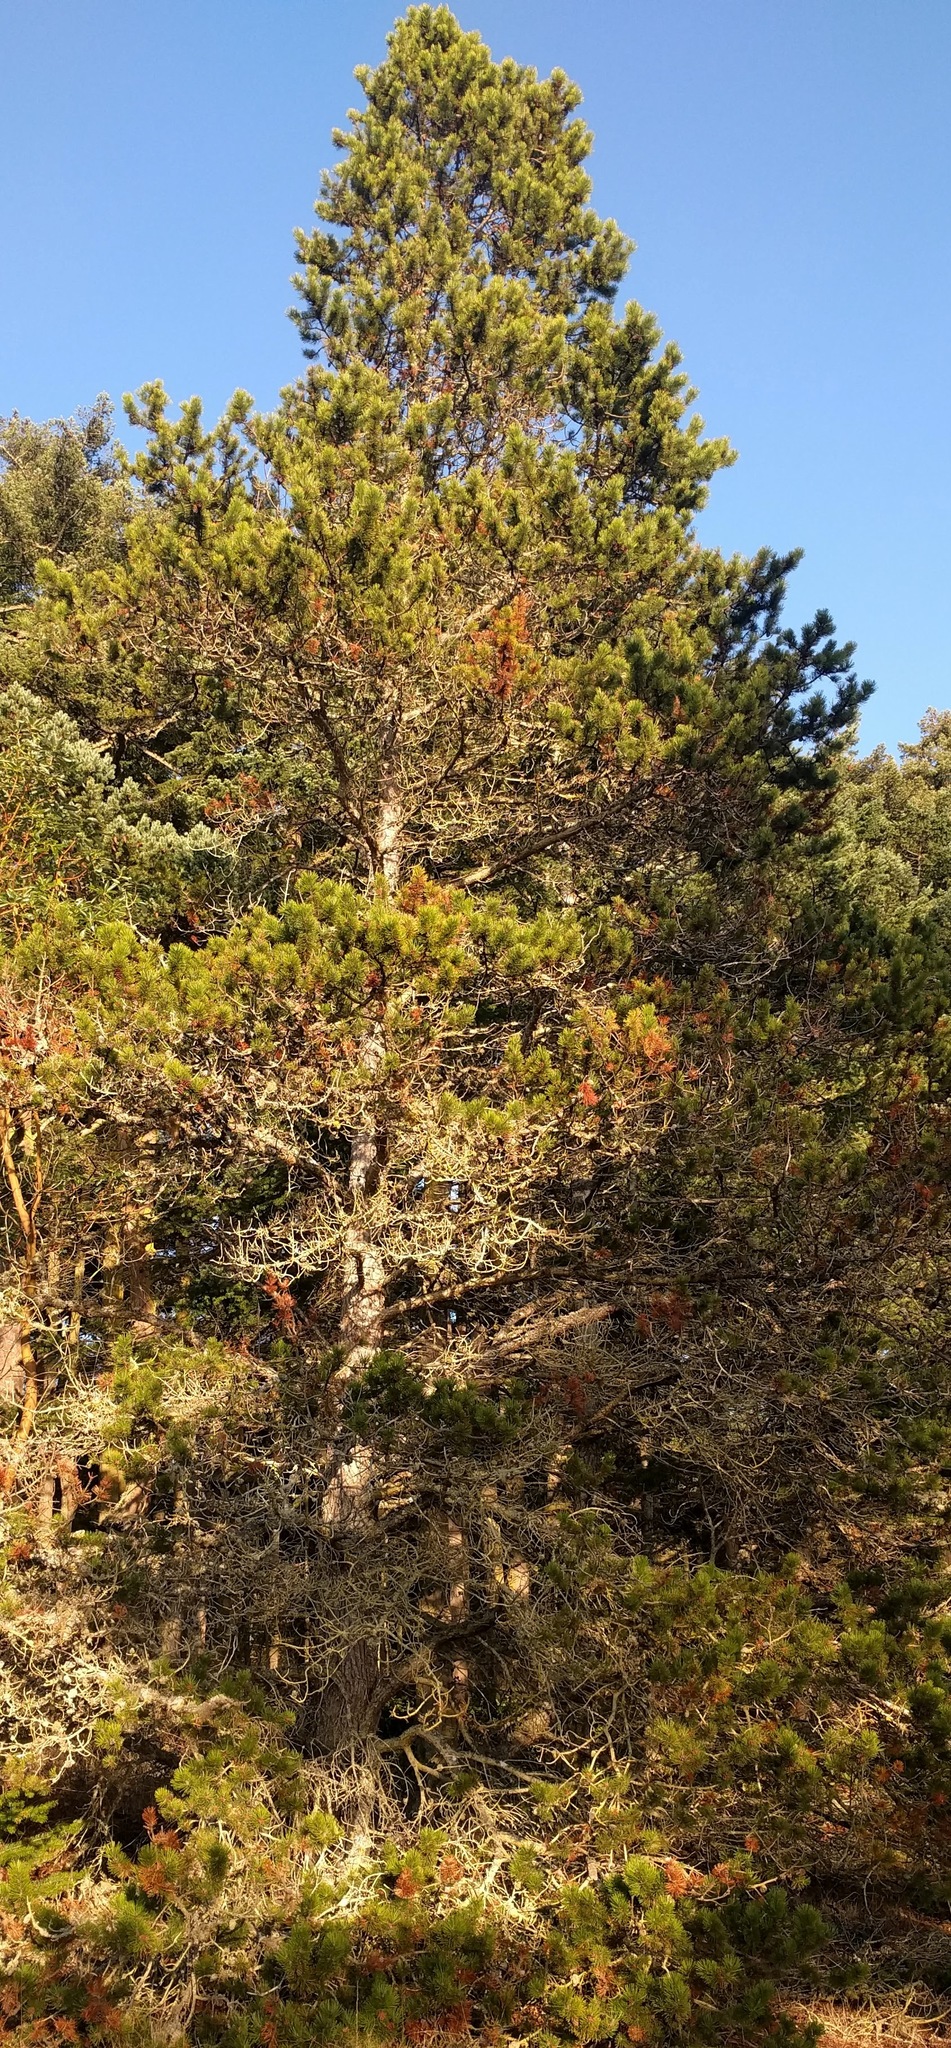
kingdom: Plantae
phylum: Tracheophyta
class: Pinopsida
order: Pinales
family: Pinaceae
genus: Pinus
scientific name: Pinus contorta
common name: Lodgepole pine
